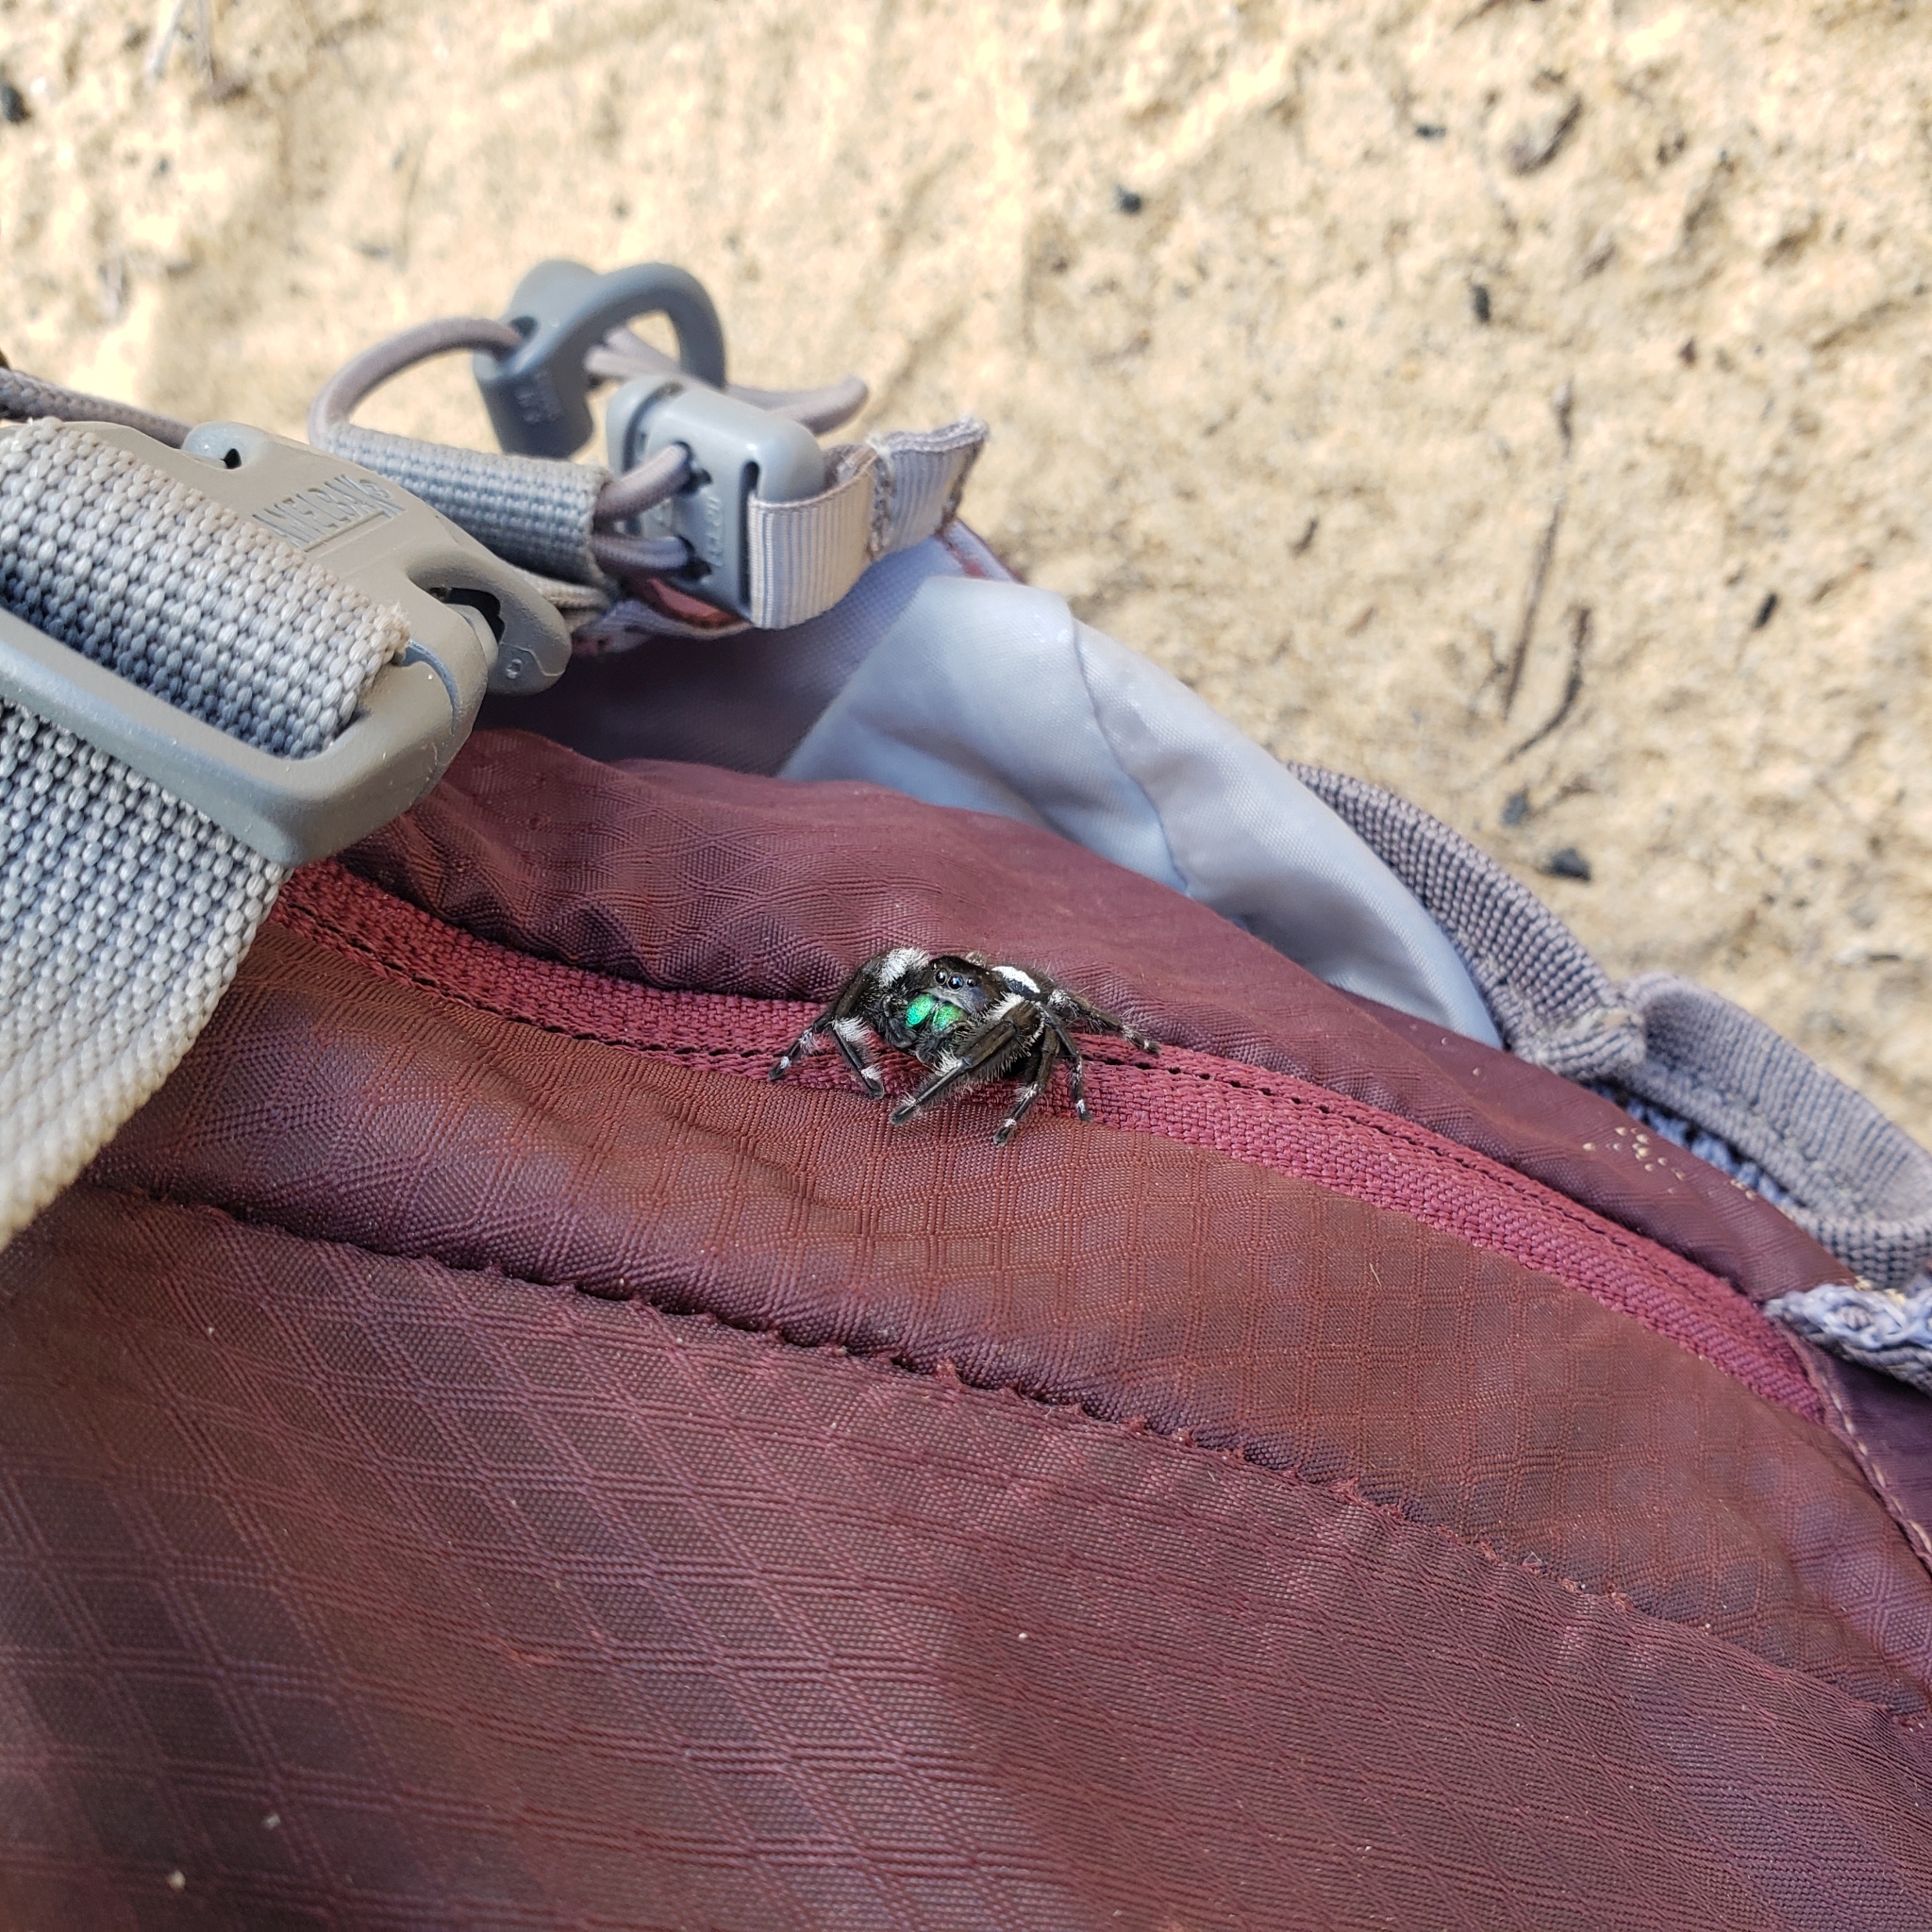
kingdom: Animalia
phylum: Arthropoda
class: Arachnida
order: Araneae
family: Salticidae
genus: Phidippus
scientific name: Phidippus regius
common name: Regal jumper
